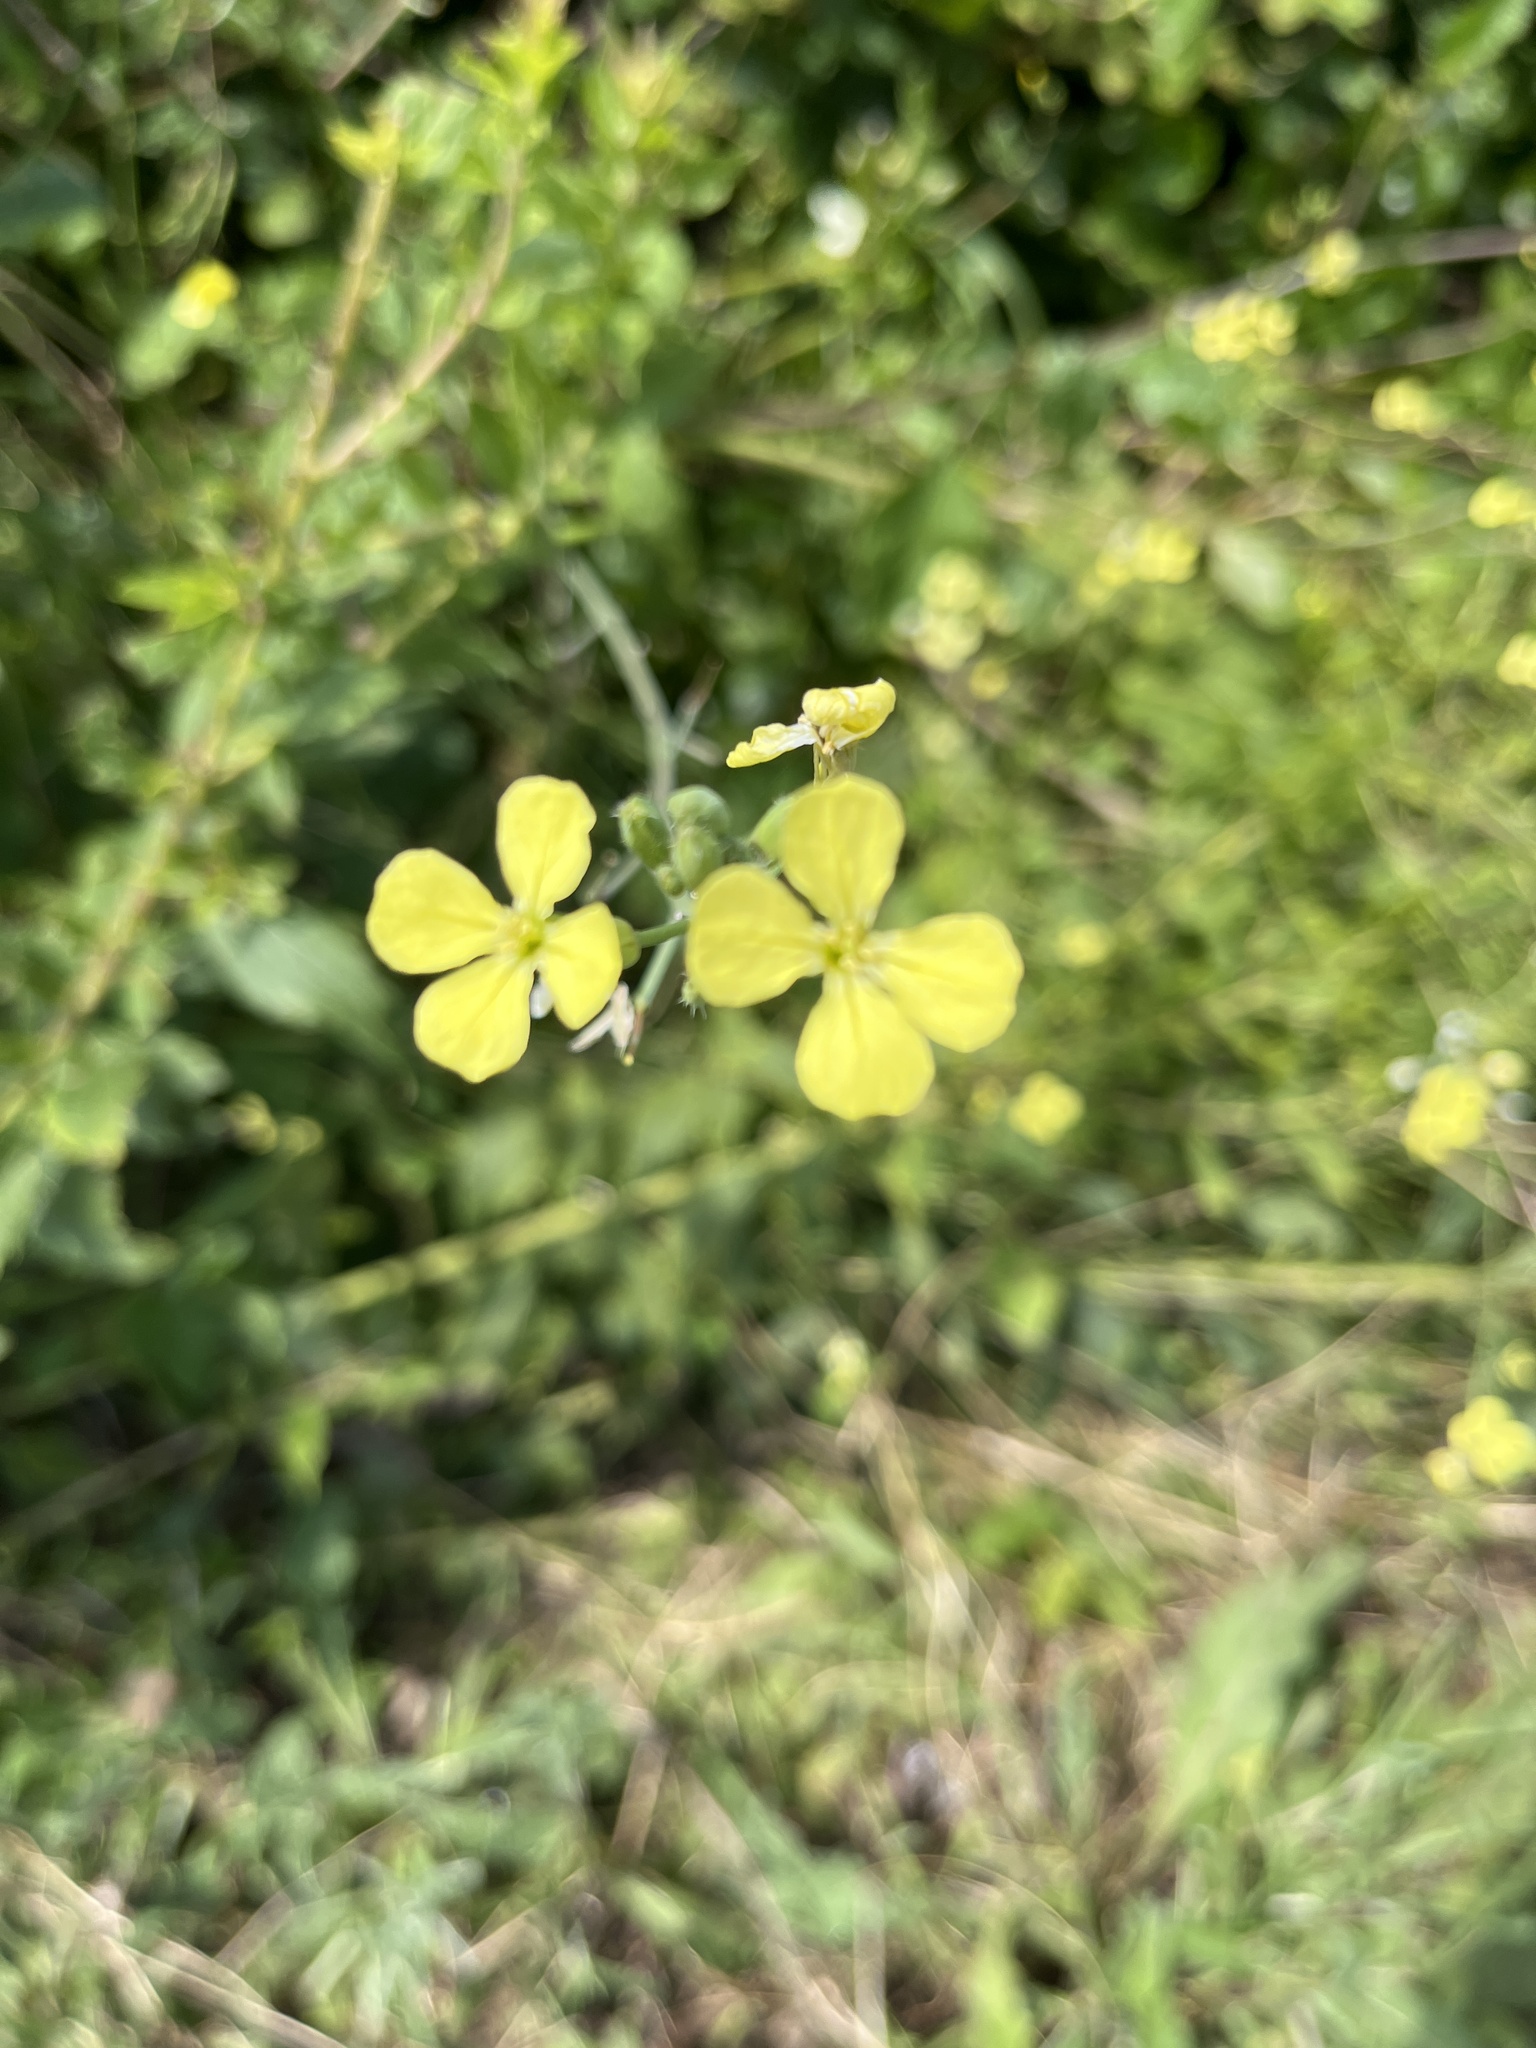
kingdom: Plantae
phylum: Tracheophyta
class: Magnoliopsida
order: Brassicales
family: Brassicaceae
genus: Raphanus
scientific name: Raphanus raphanistrum
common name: Wild radish
